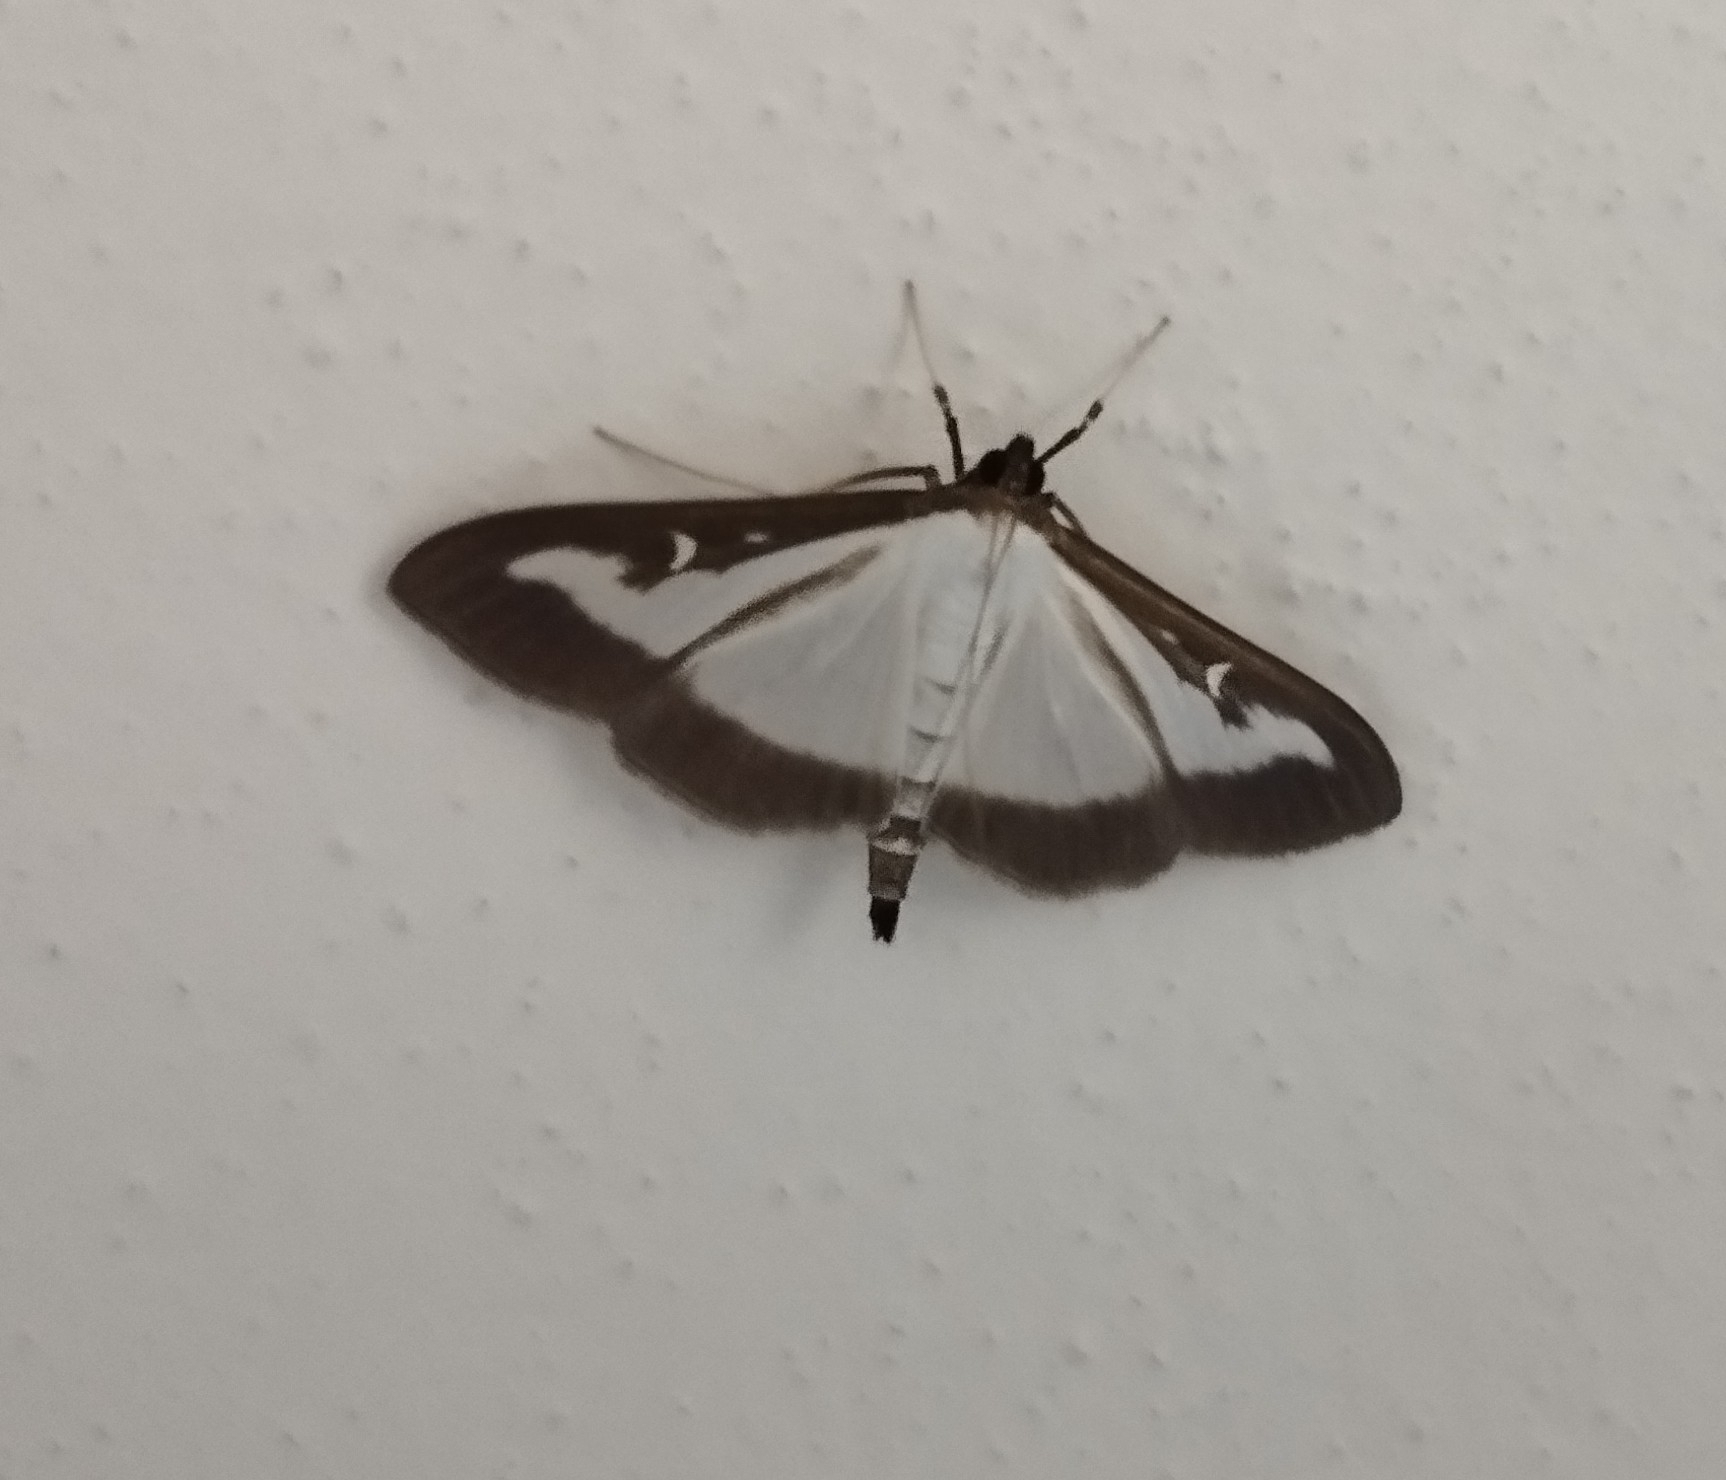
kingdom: Animalia
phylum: Arthropoda
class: Insecta
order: Lepidoptera
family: Crambidae
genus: Cydalima
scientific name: Cydalima perspectalis
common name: Box tree moth
